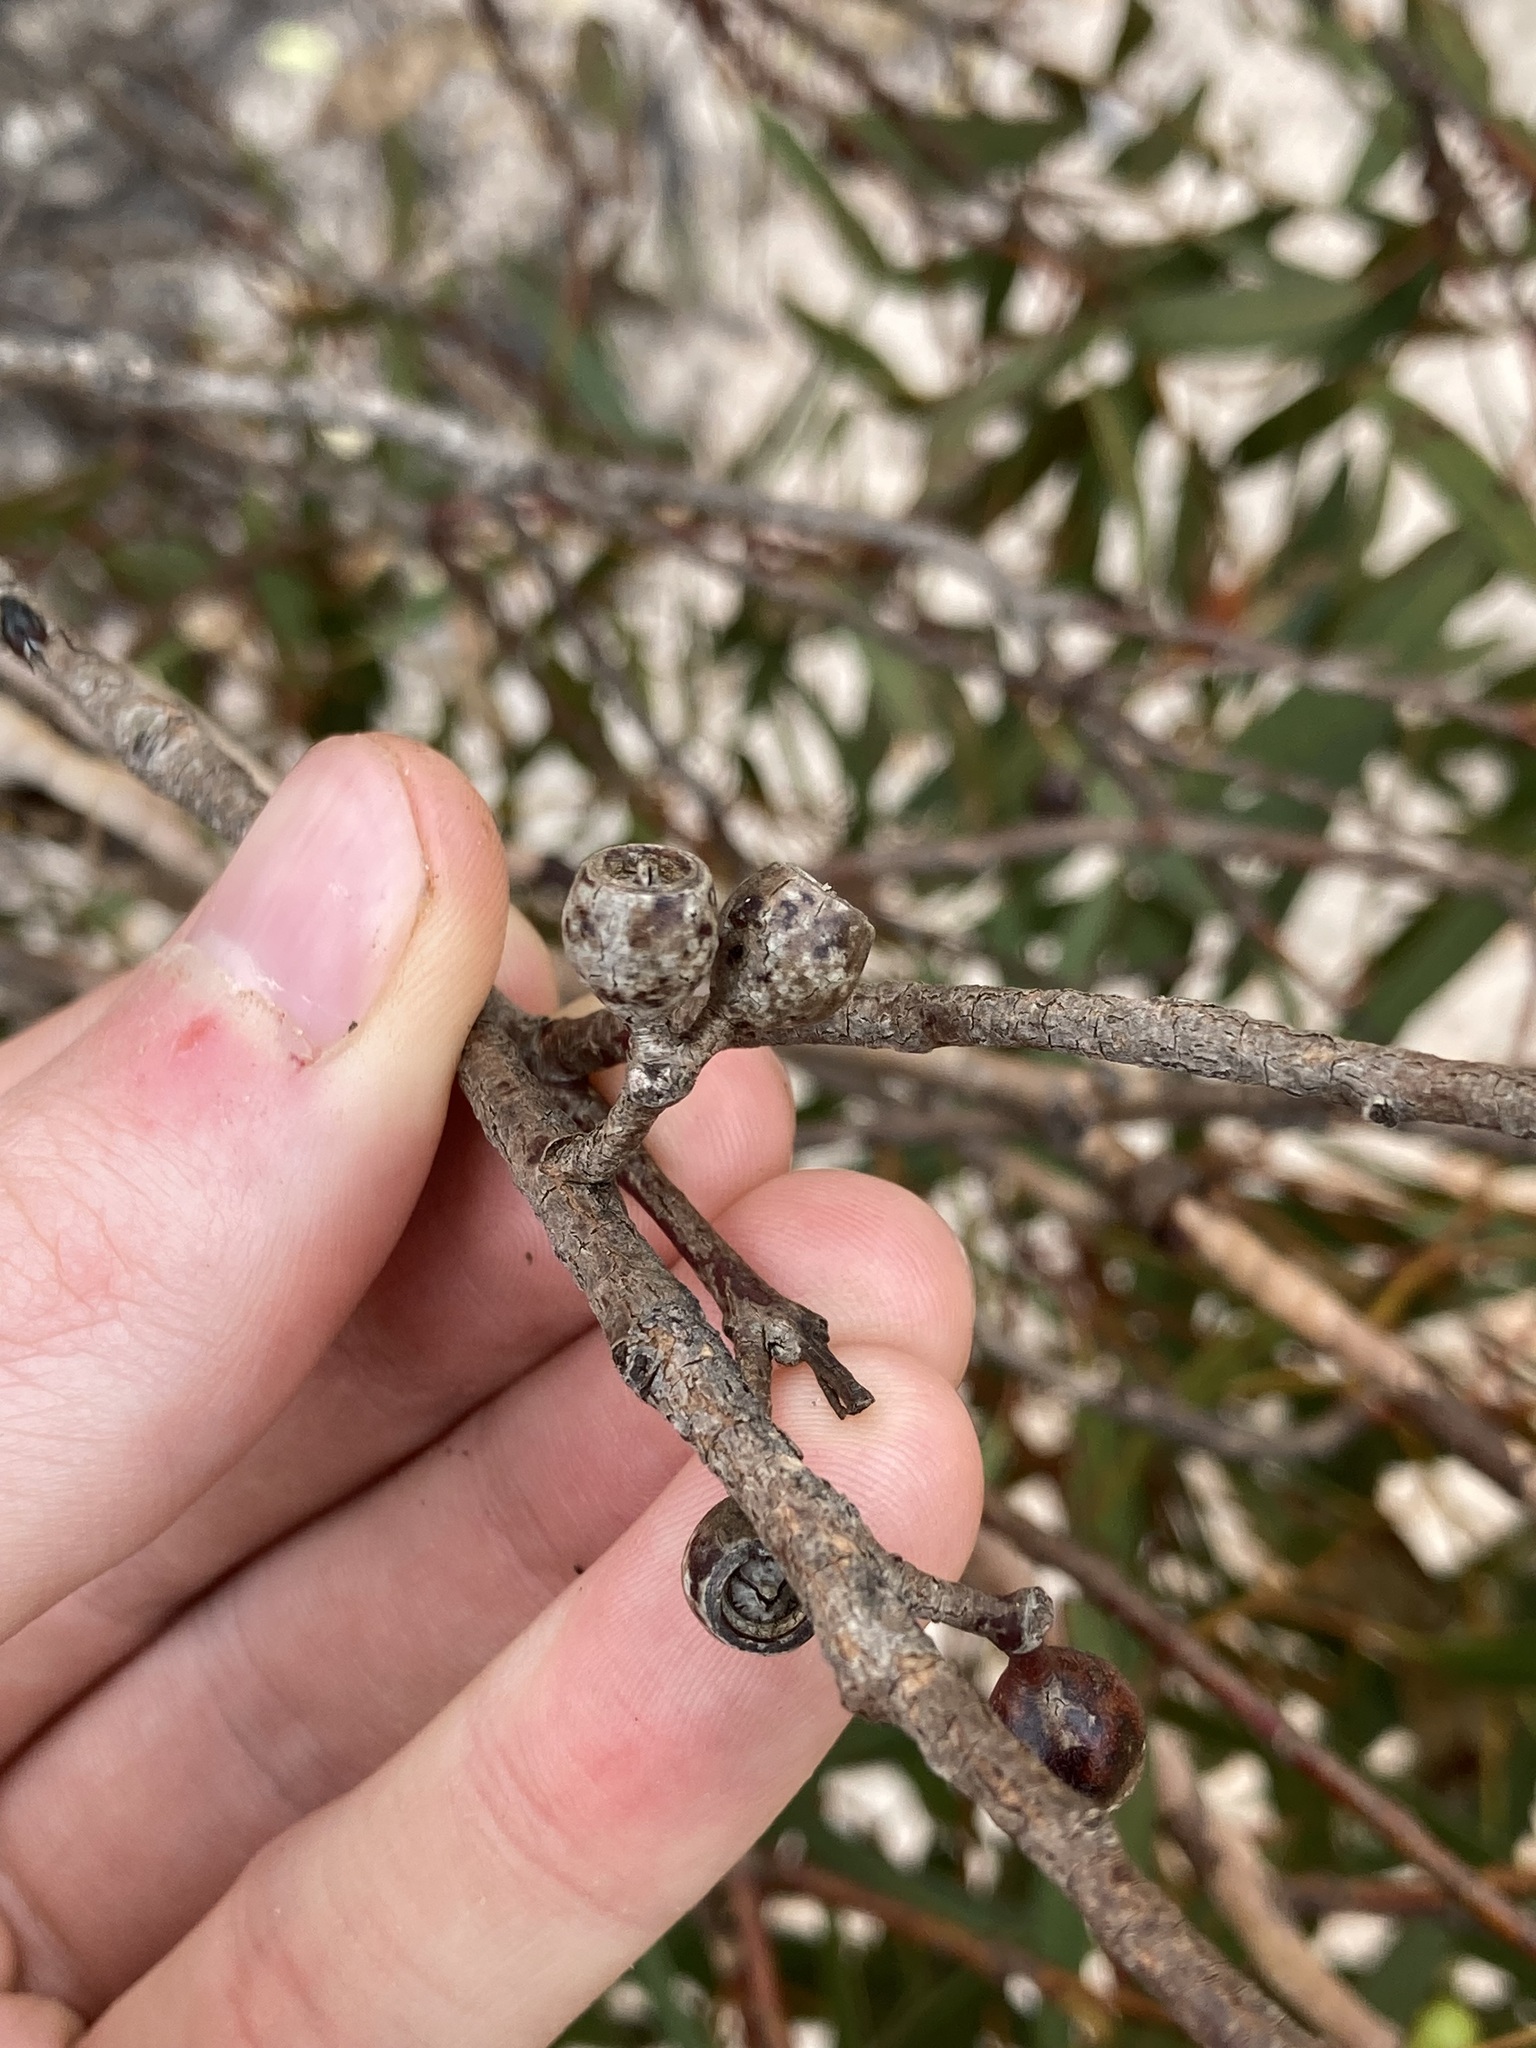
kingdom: Plantae
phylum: Tracheophyta
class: Magnoliopsida
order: Myrtales
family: Myrtaceae
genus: Eucalyptus
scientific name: Eucalyptus flocktoniae
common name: Flockton's mallee
